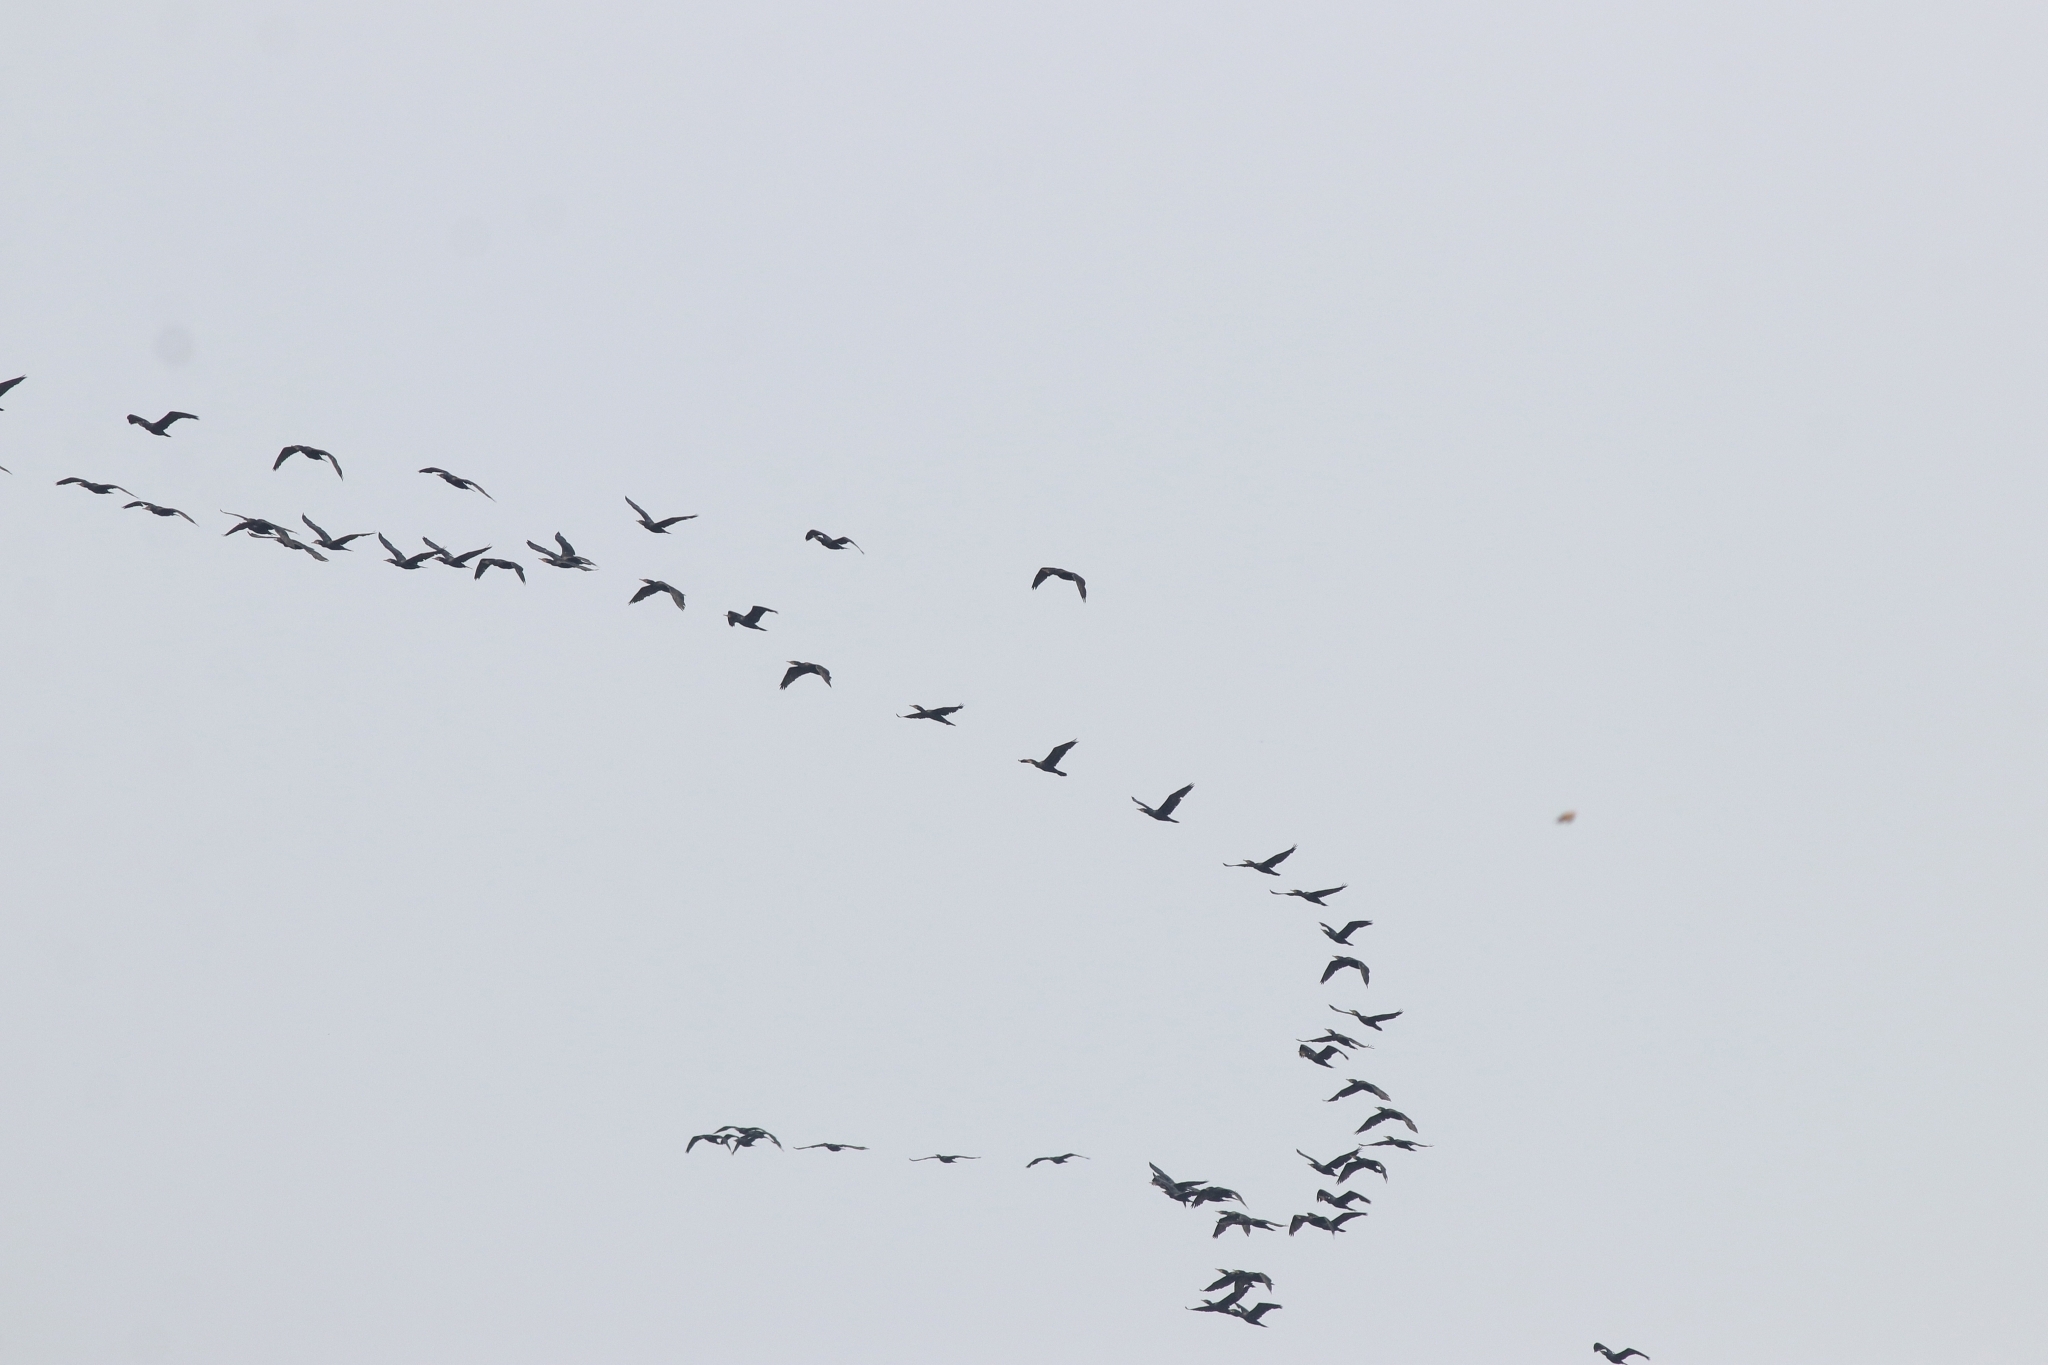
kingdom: Animalia
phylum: Chordata
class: Aves
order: Suliformes
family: Phalacrocoracidae
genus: Phalacrocorax
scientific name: Phalacrocorax fuscicollis
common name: Indian cormorant
